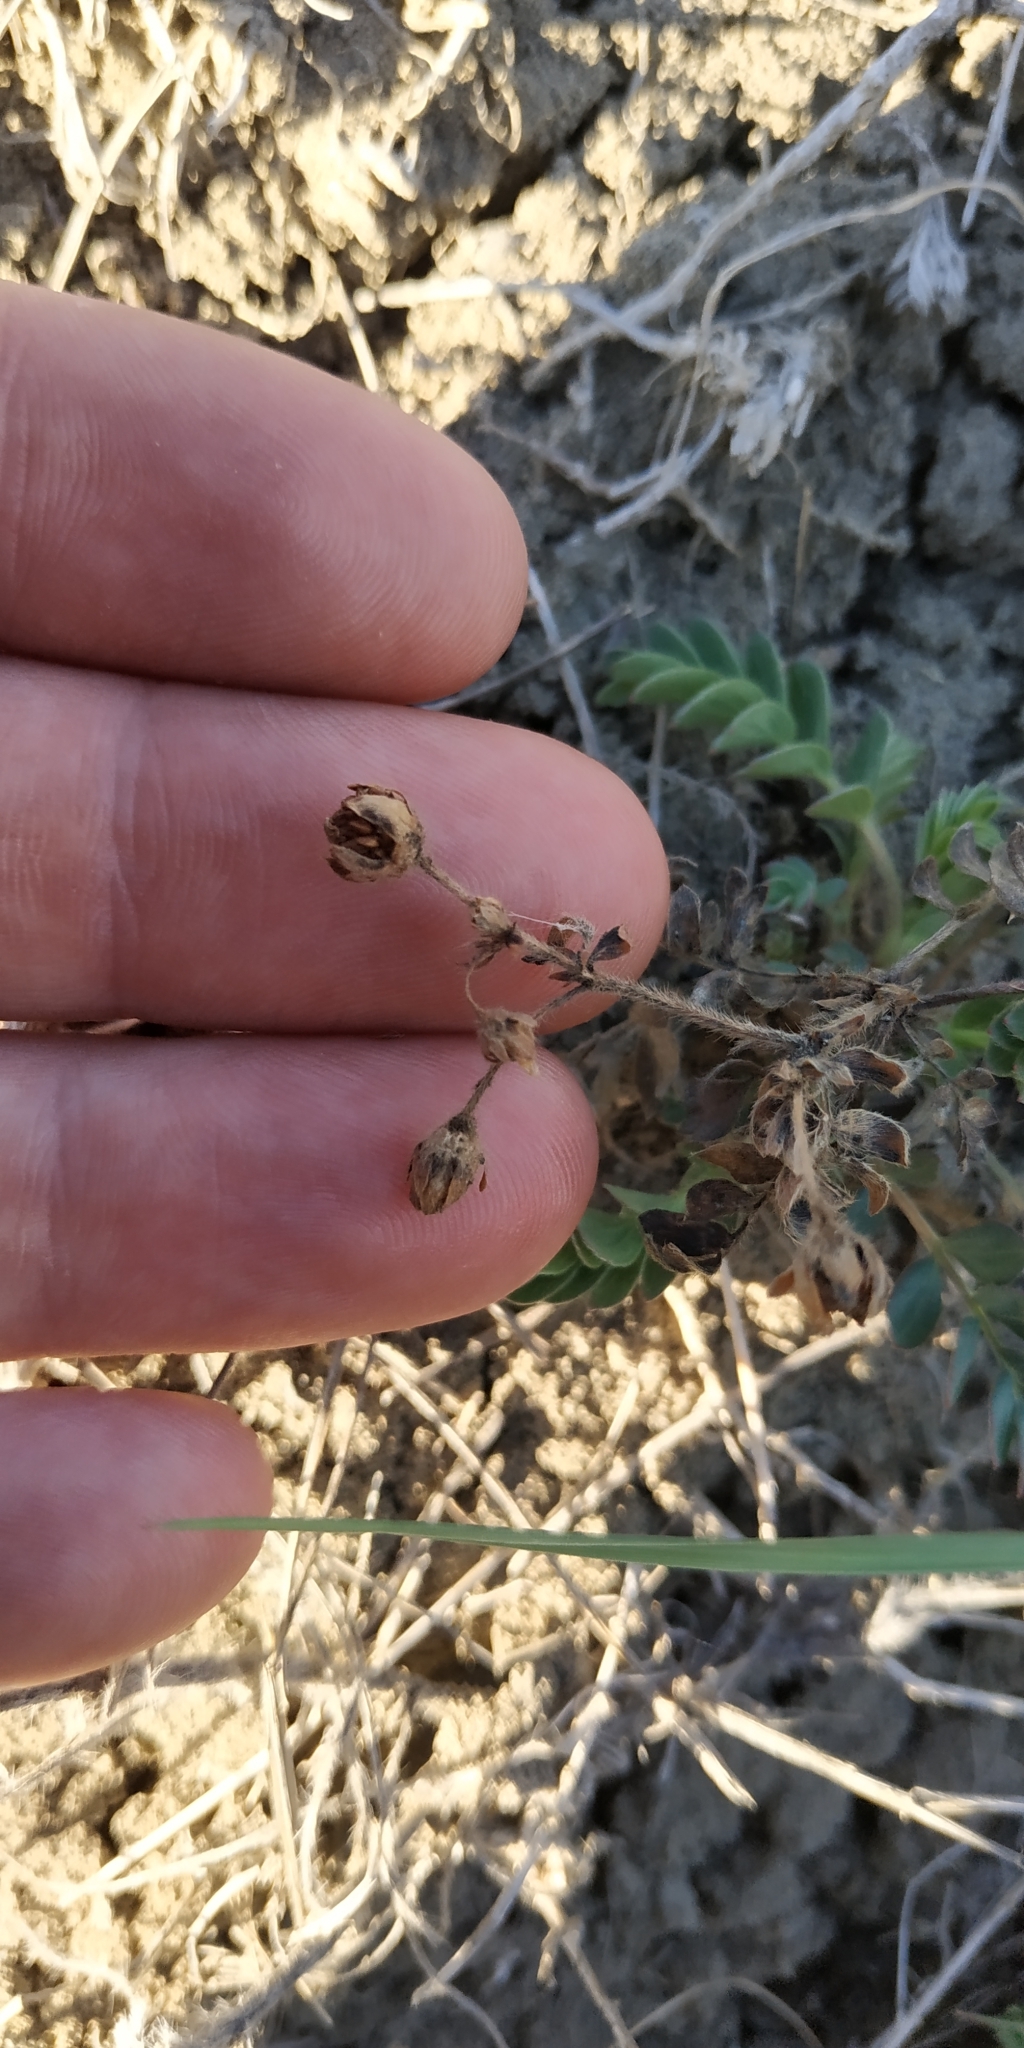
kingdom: Plantae
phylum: Tracheophyta
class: Magnoliopsida
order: Rosales
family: Rosaceae
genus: Sibbaldianthe
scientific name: Sibbaldianthe bifurca
